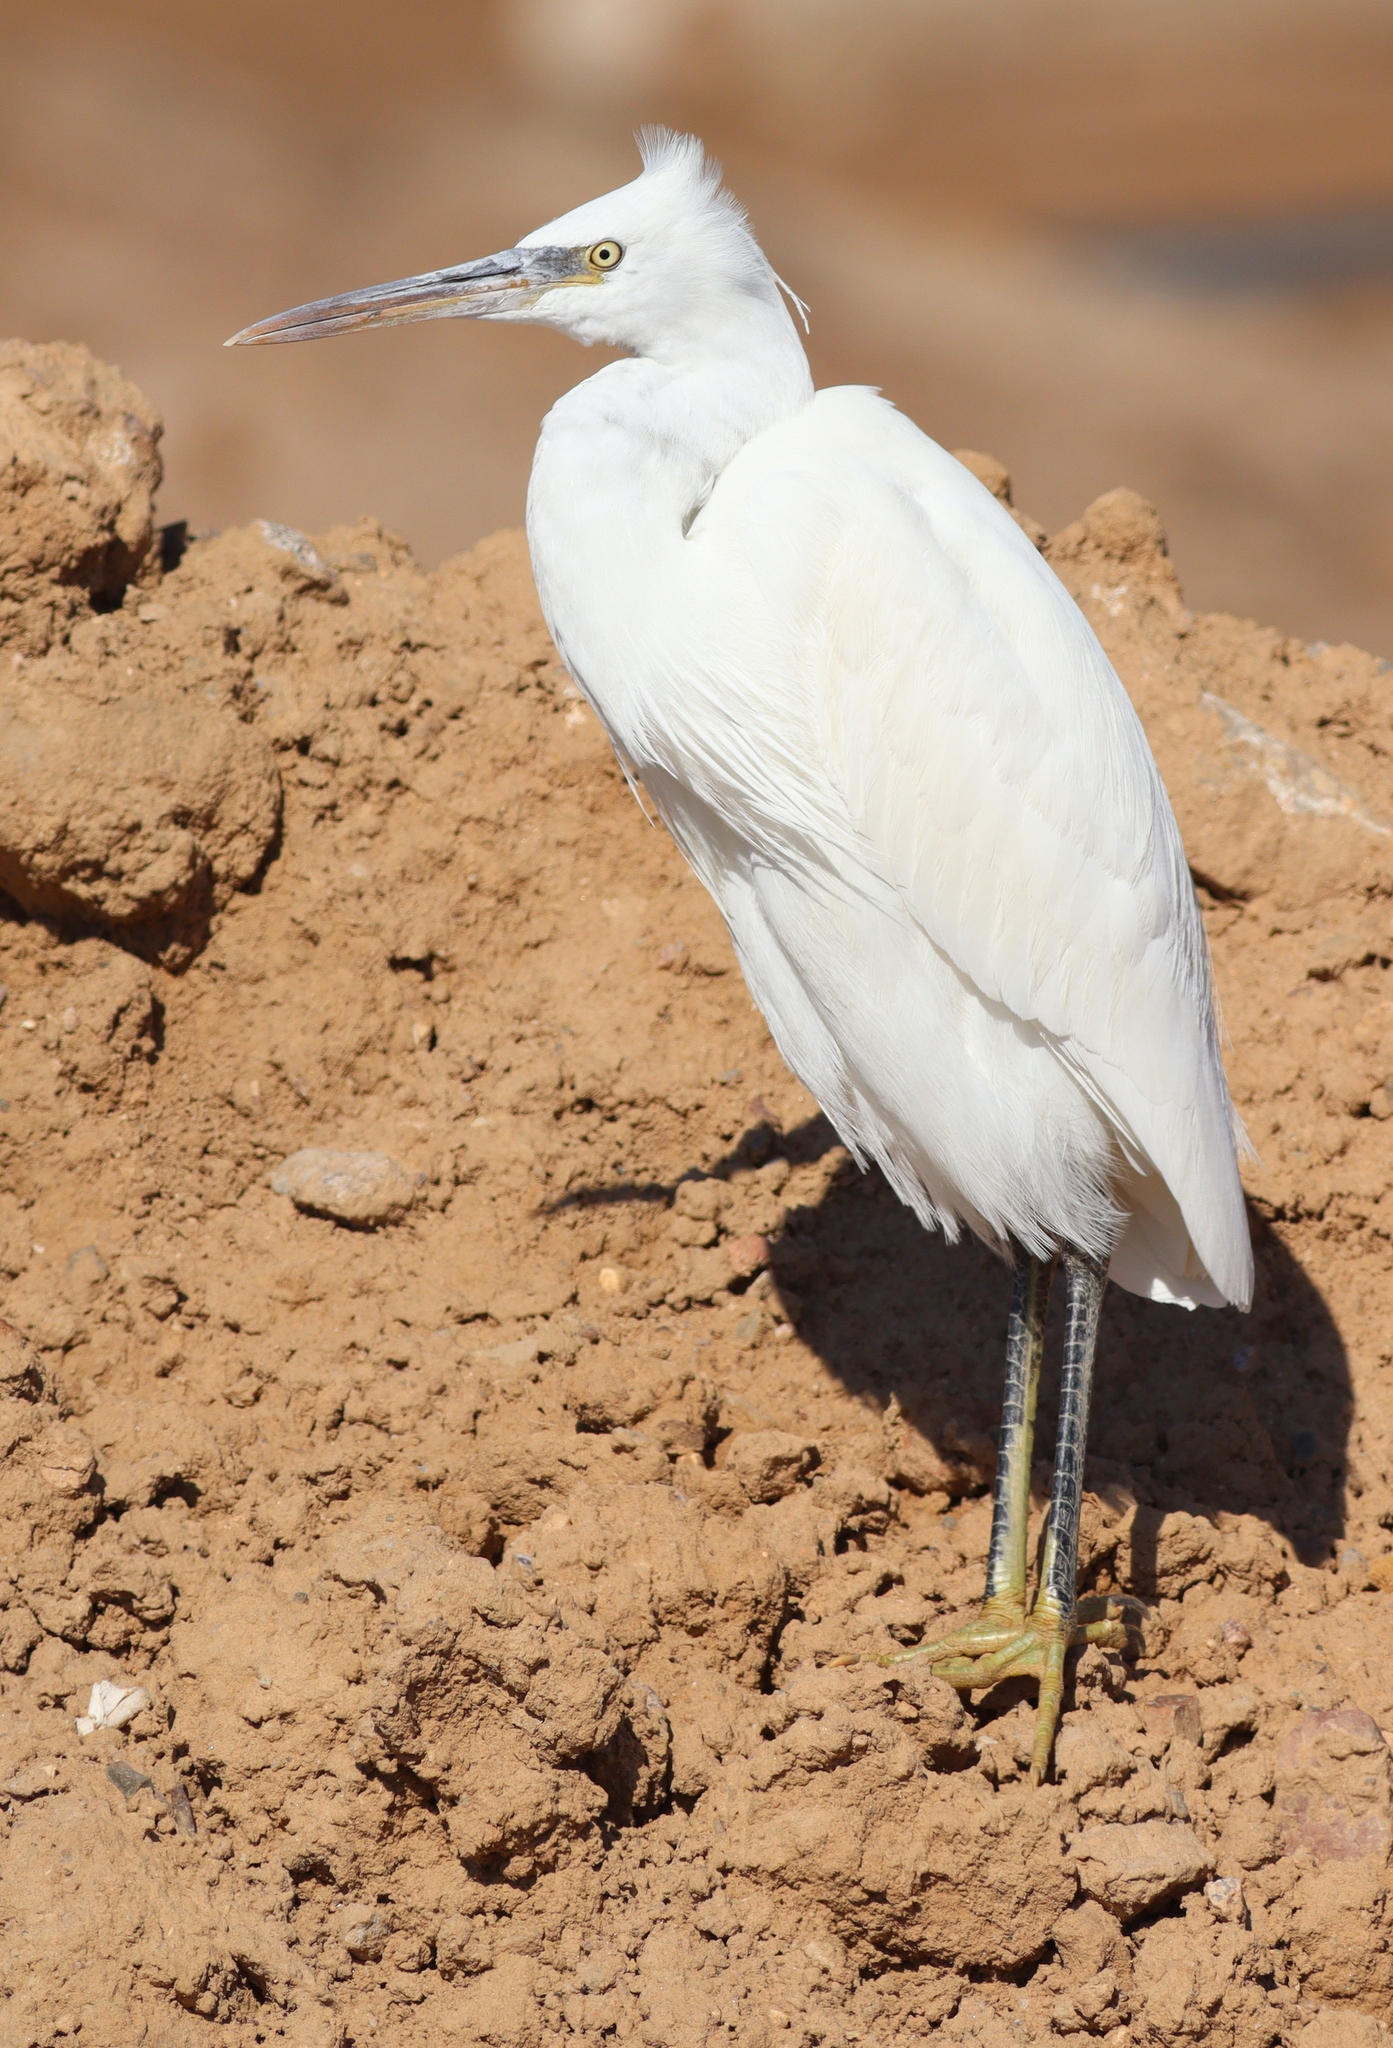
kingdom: Animalia
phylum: Chordata
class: Aves
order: Pelecaniformes
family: Ardeidae
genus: Egretta
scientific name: Egretta gularis
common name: Western reef-heron
